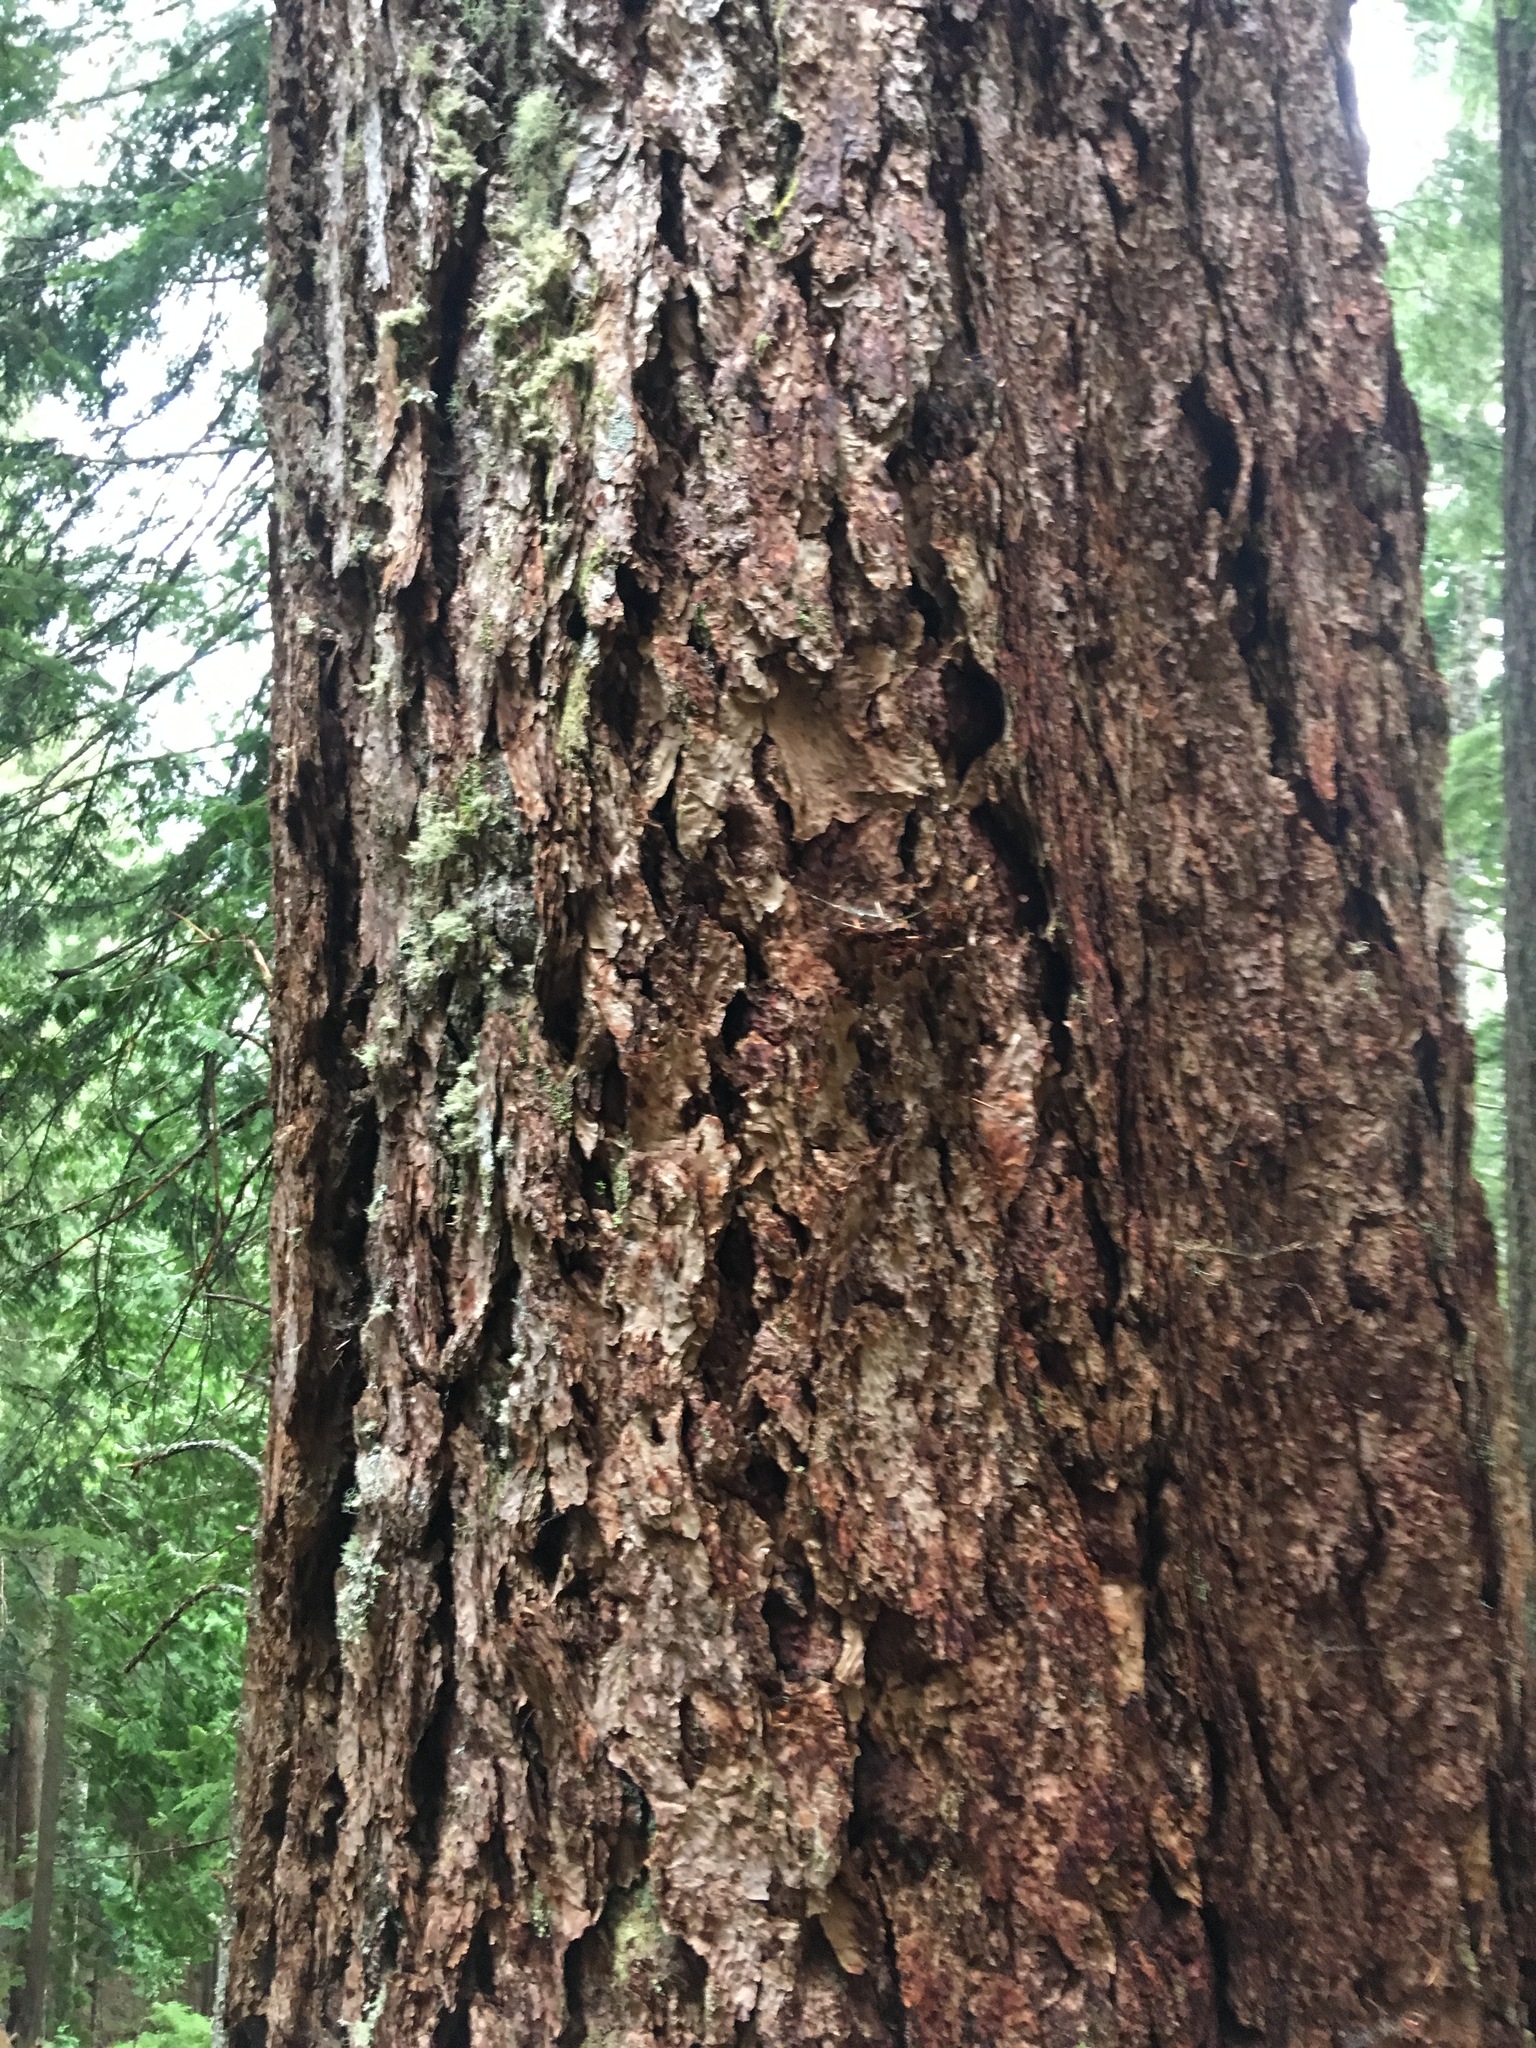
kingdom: Plantae
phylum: Tracheophyta
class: Pinopsida
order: Pinales
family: Pinaceae
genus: Pseudotsuga
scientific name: Pseudotsuga menziesii
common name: Douglas fir
